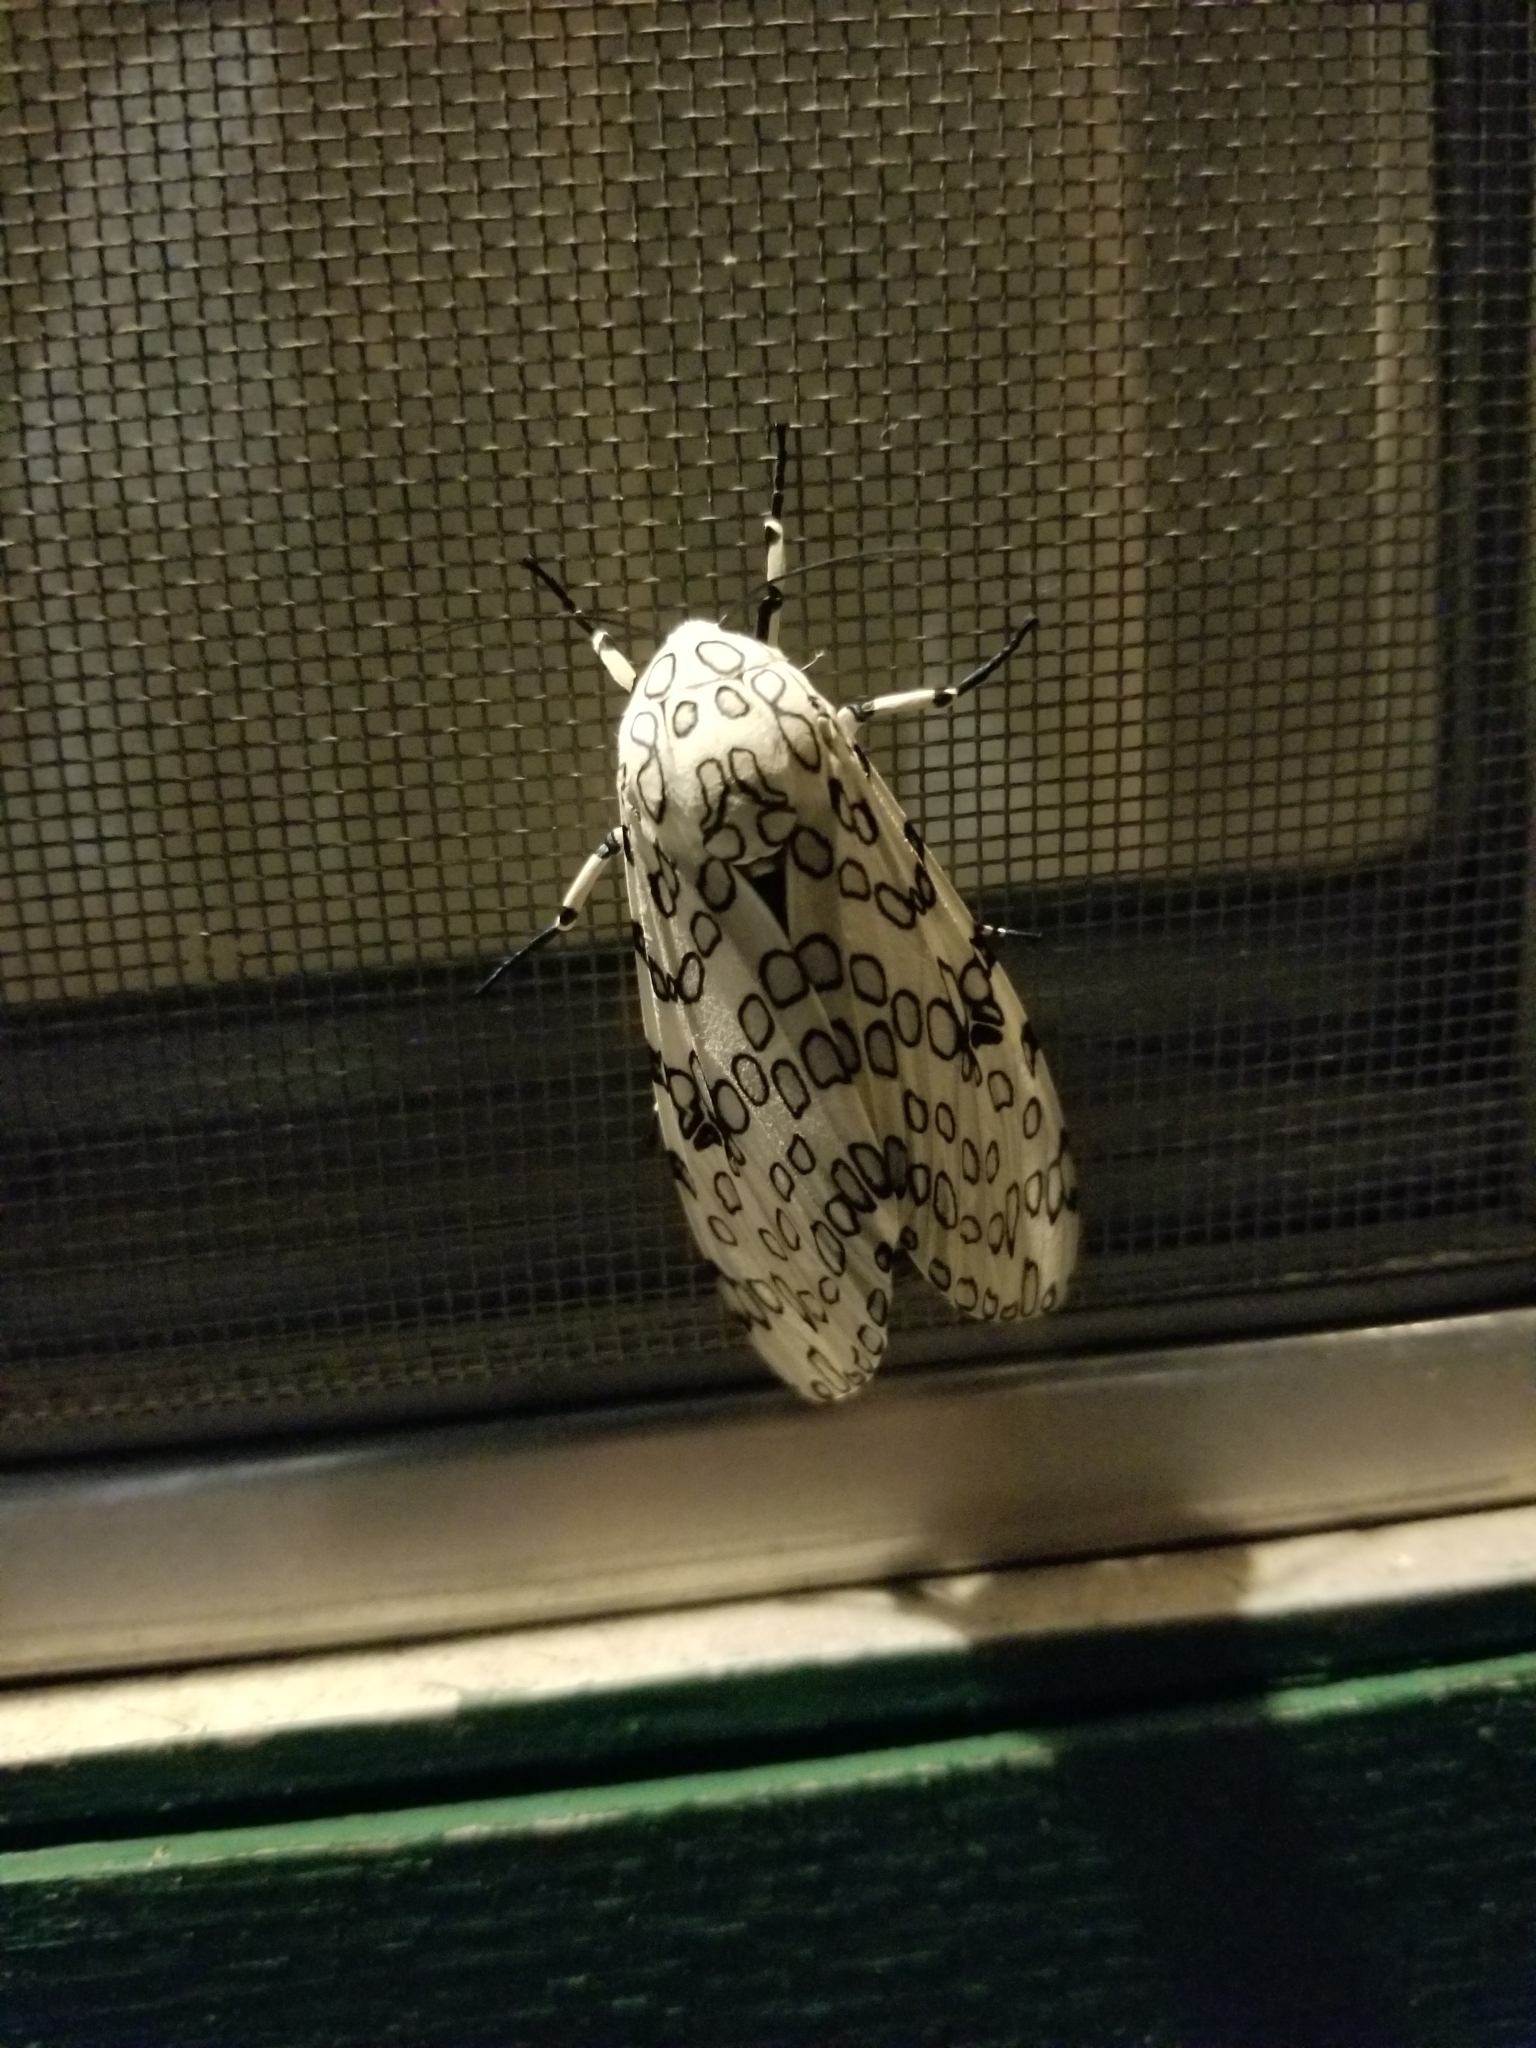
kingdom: Animalia
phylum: Arthropoda
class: Insecta
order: Lepidoptera
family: Erebidae
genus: Hypercompe
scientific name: Hypercompe scribonia
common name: Giant leopard moth
